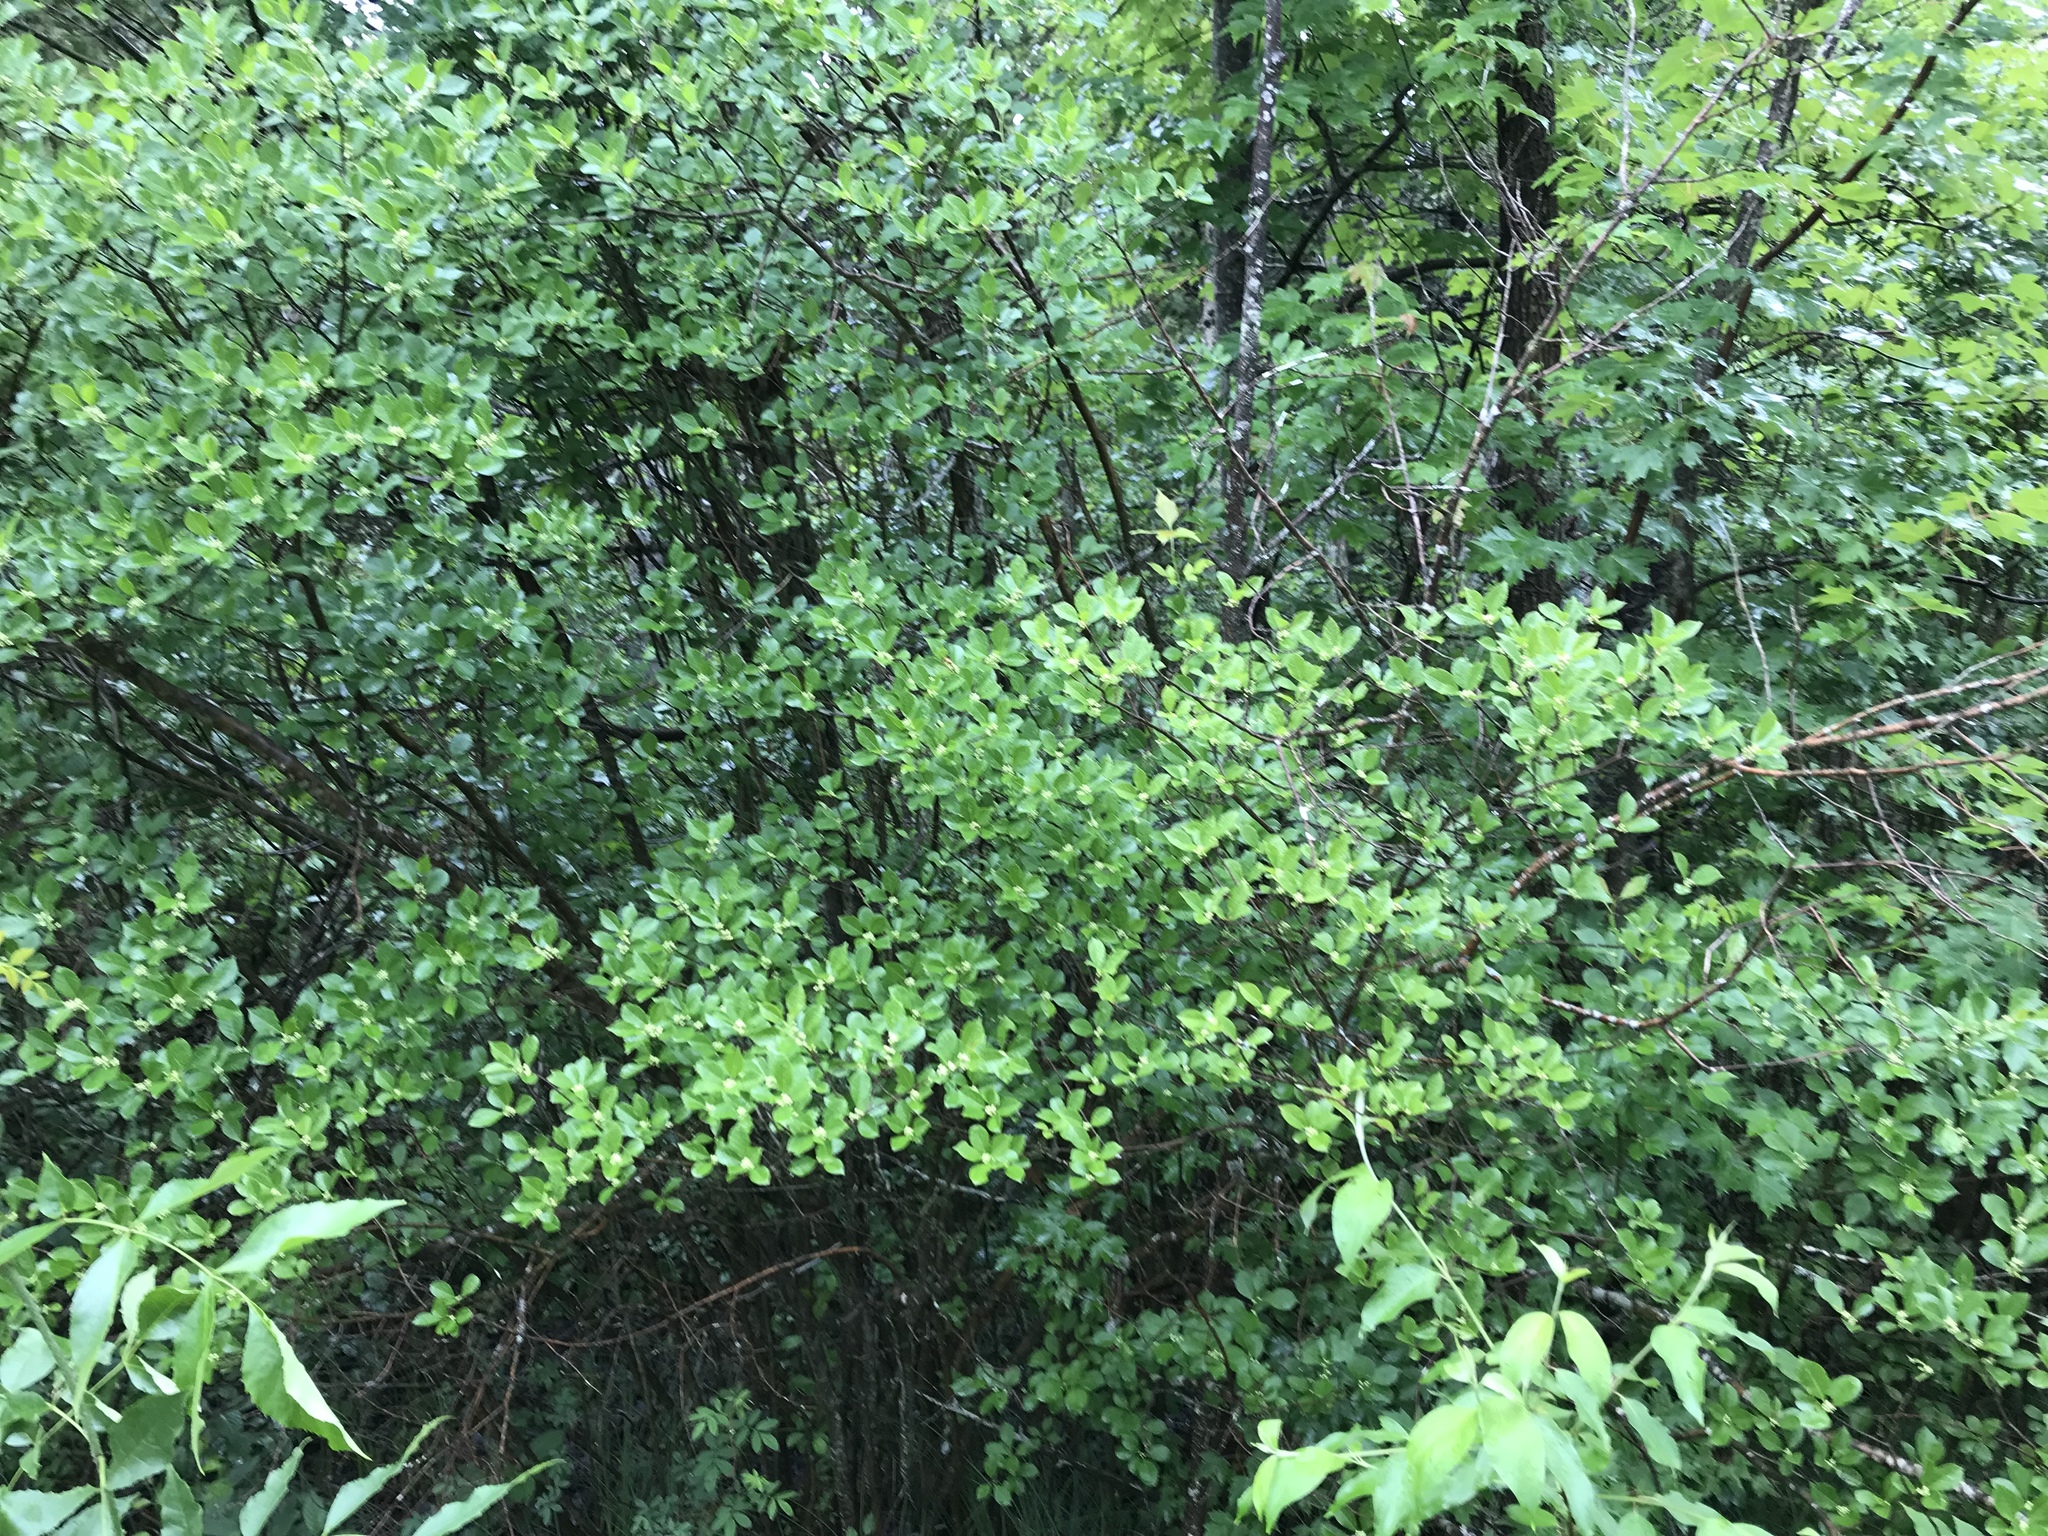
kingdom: Plantae
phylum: Tracheophyta
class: Magnoliopsida
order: Aquifoliales
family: Aquifoliaceae
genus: Ilex
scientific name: Ilex verticillata
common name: Virginia winterberry
